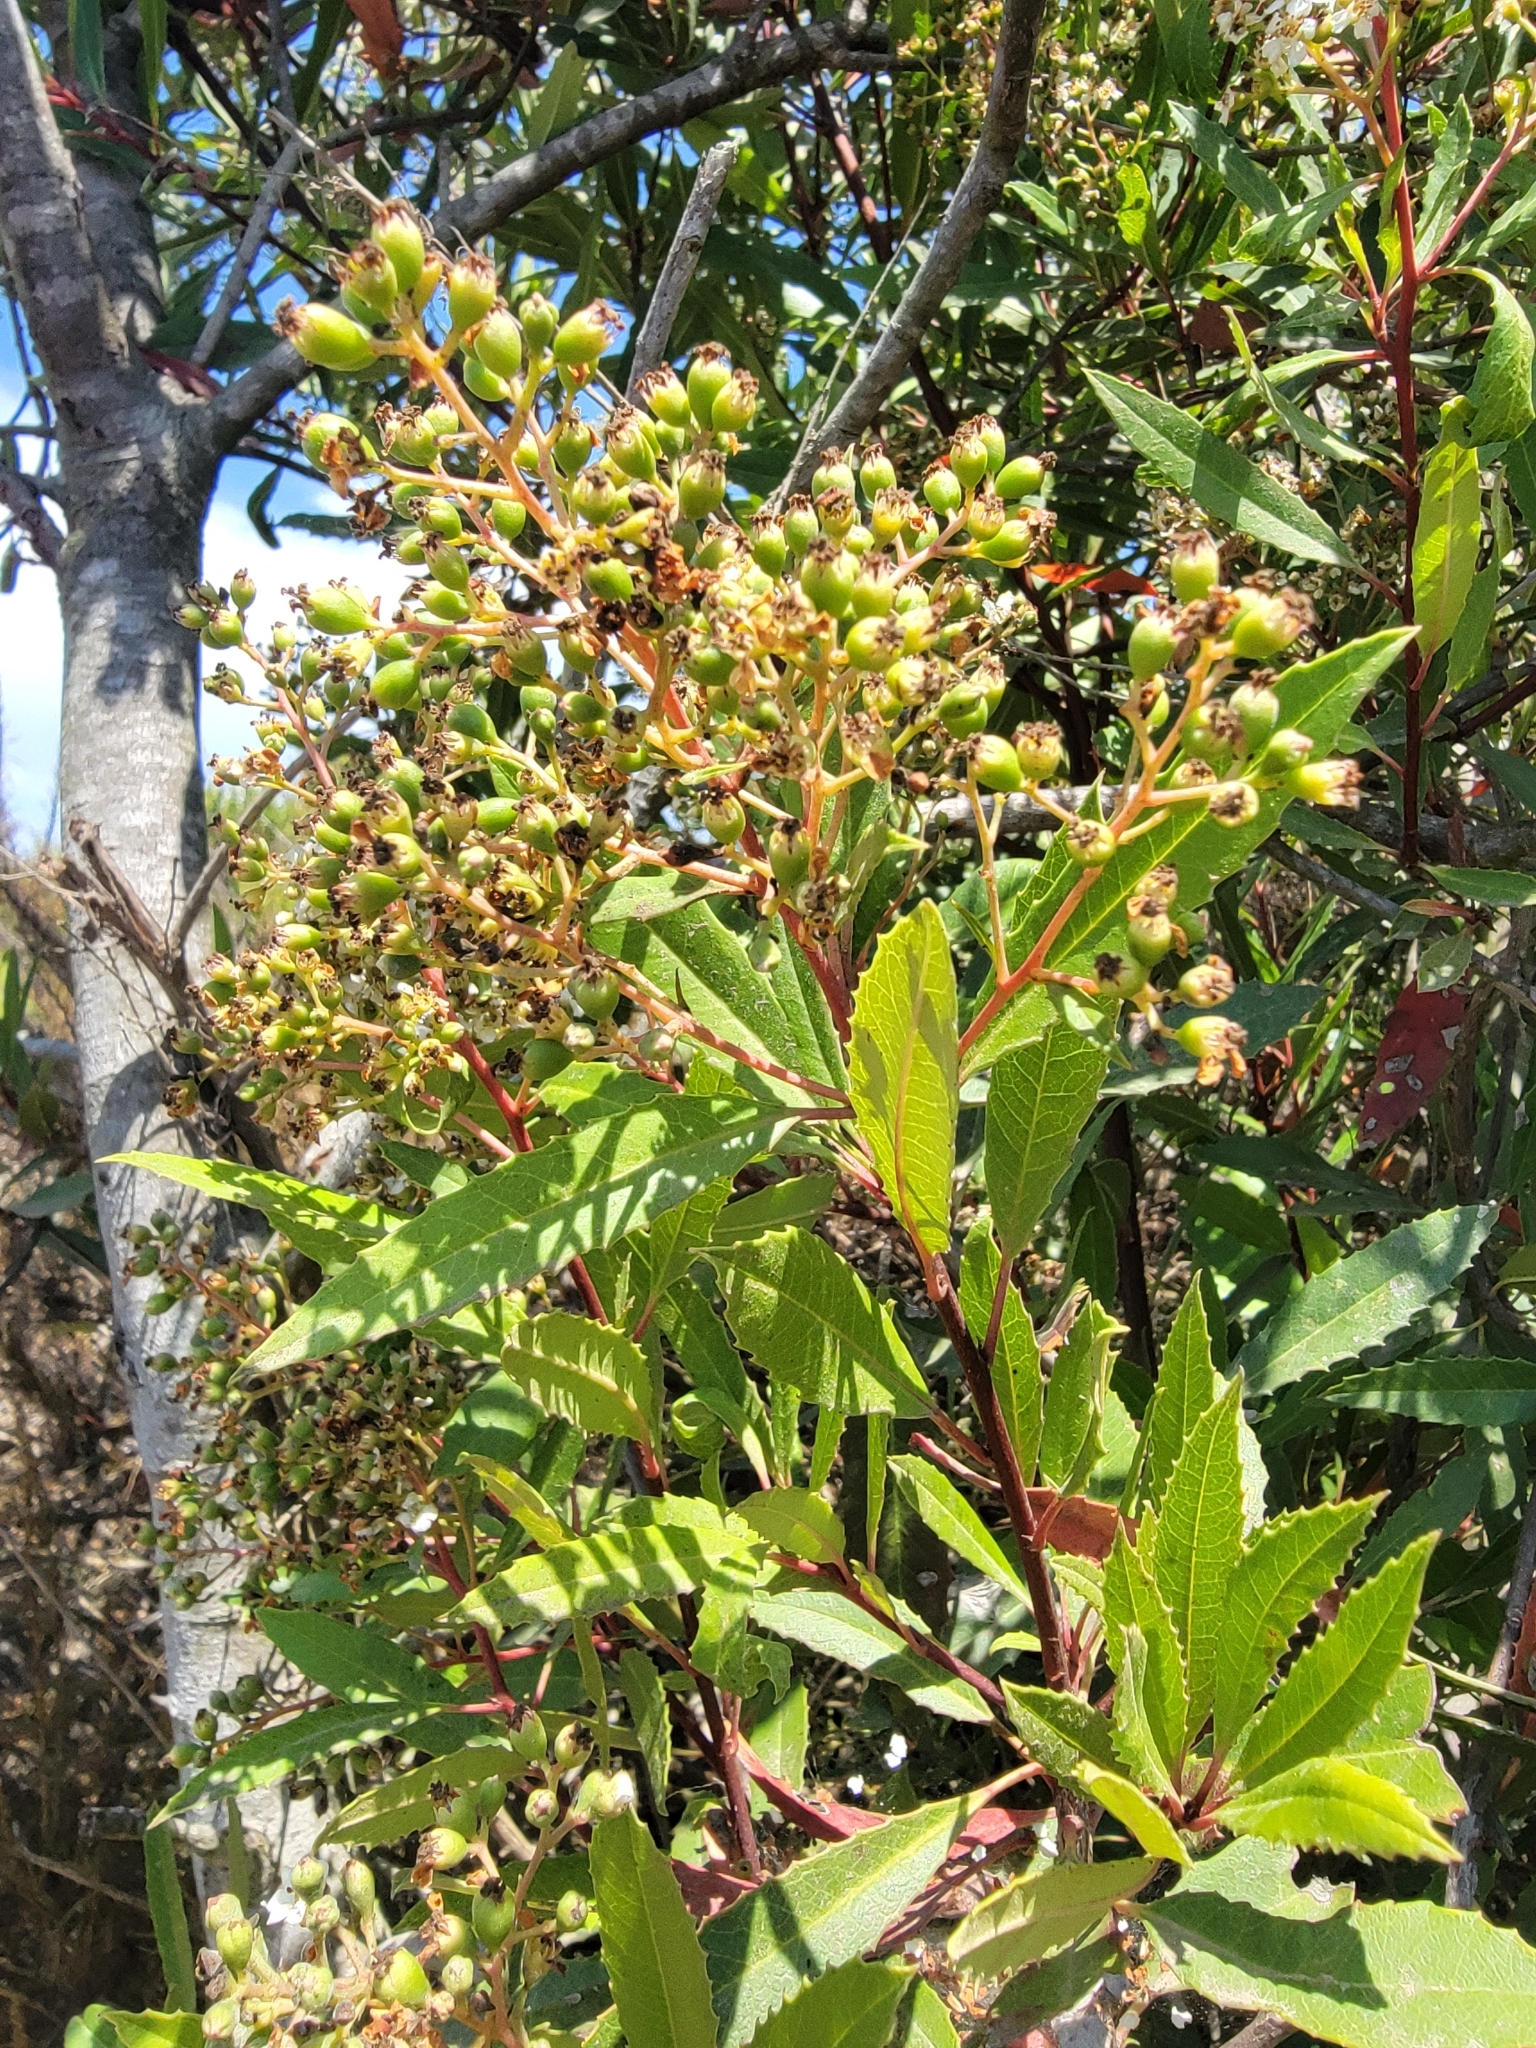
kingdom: Plantae
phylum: Tracheophyta
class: Magnoliopsida
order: Rosales
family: Rosaceae
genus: Heteromeles
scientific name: Heteromeles arbutifolia
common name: California-holly
